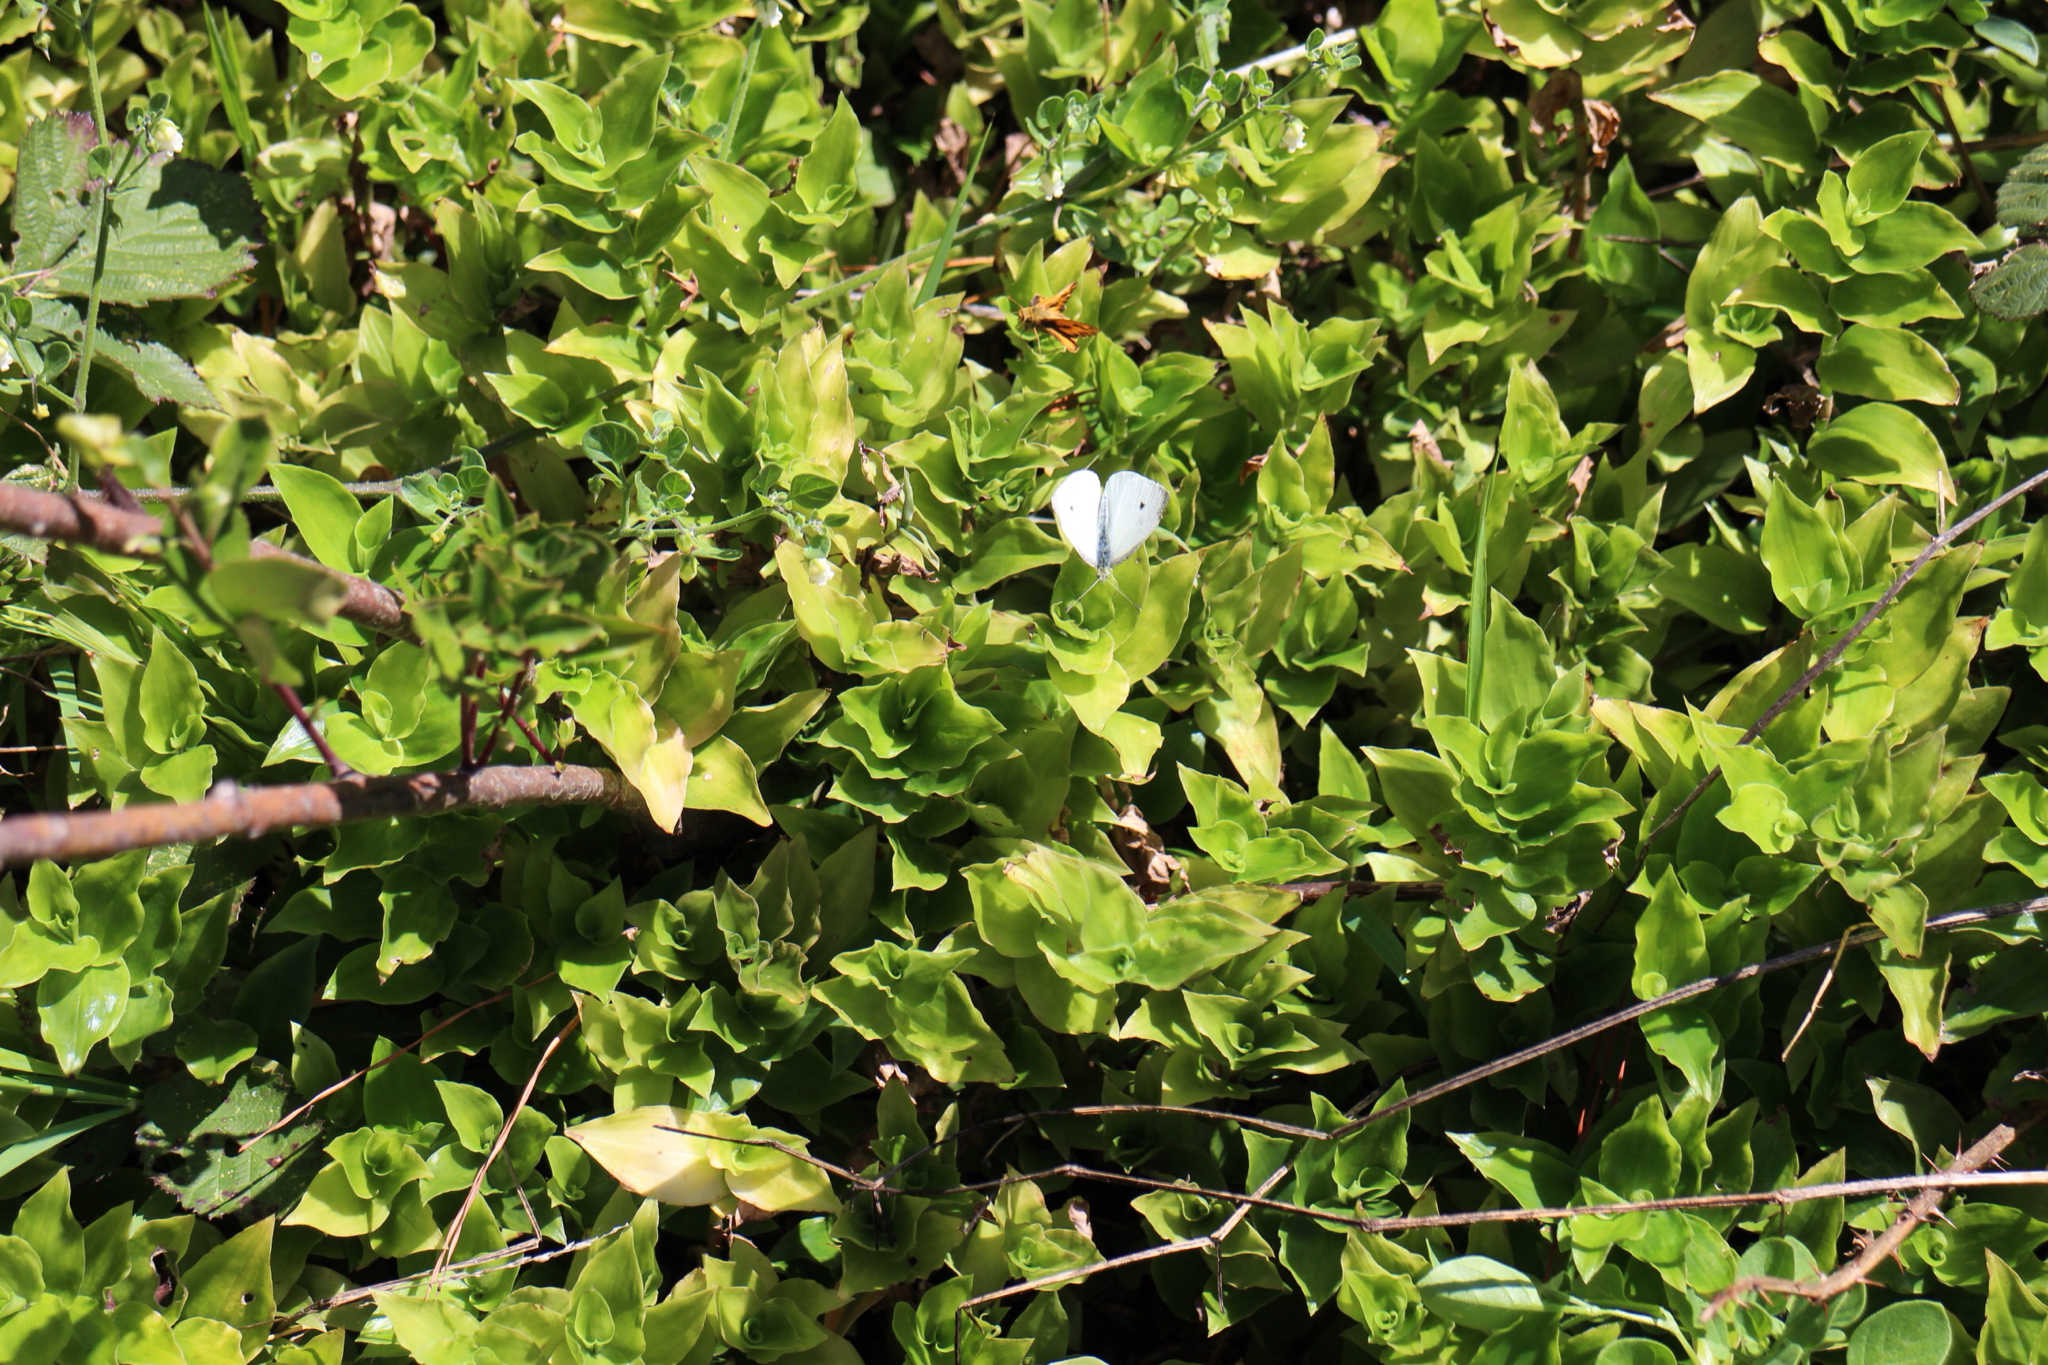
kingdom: Animalia
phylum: Arthropoda
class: Insecta
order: Lepidoptera
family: Pieridae
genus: Pieris
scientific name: Pieris rapae
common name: Small white
